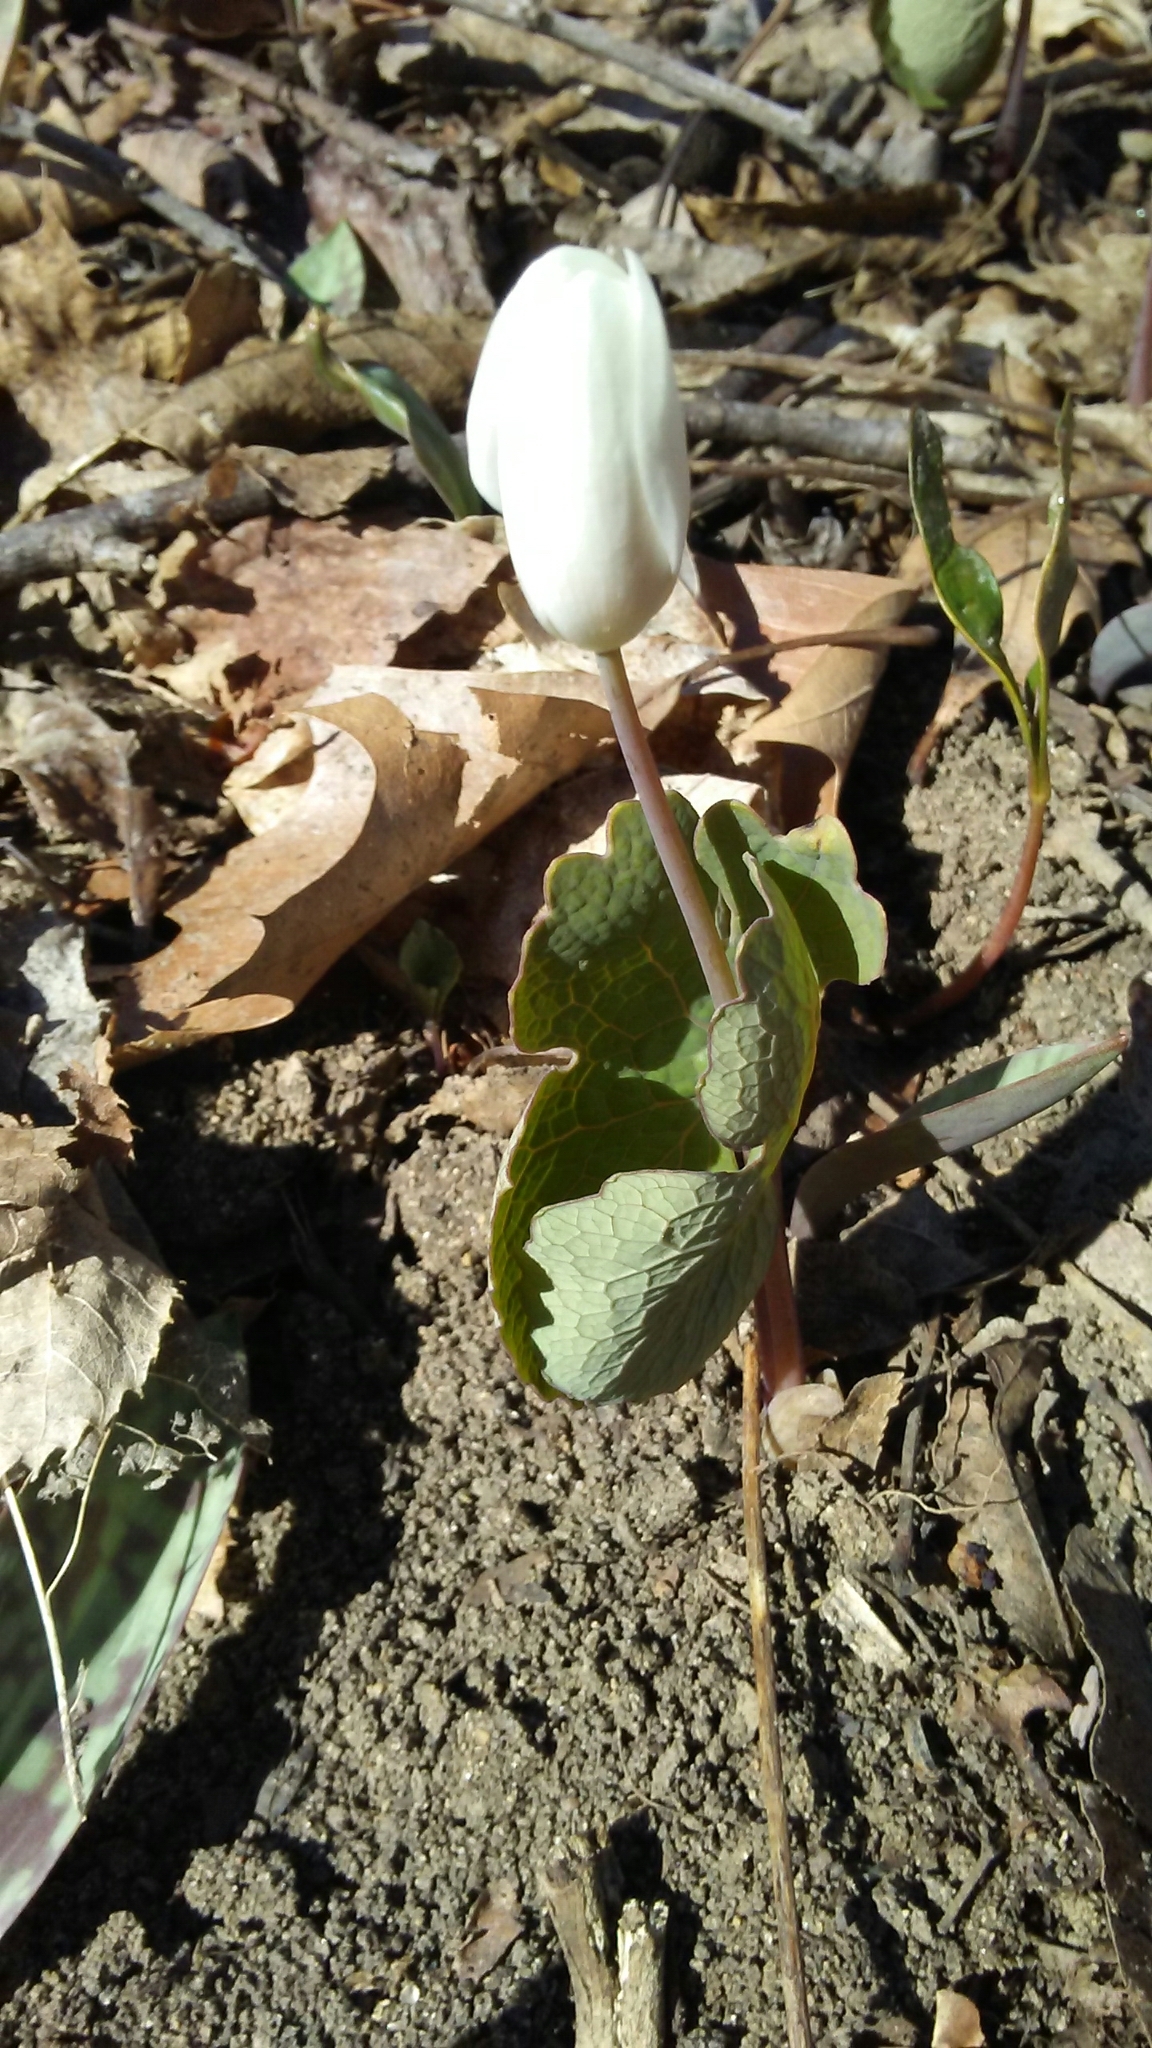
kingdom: Plantae
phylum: Tracheophyta
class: Magnoliopsida
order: Ranunculales
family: Papaveraceae
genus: Sanguinaria
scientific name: Sanguinaria canadensis
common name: Bloodroot
